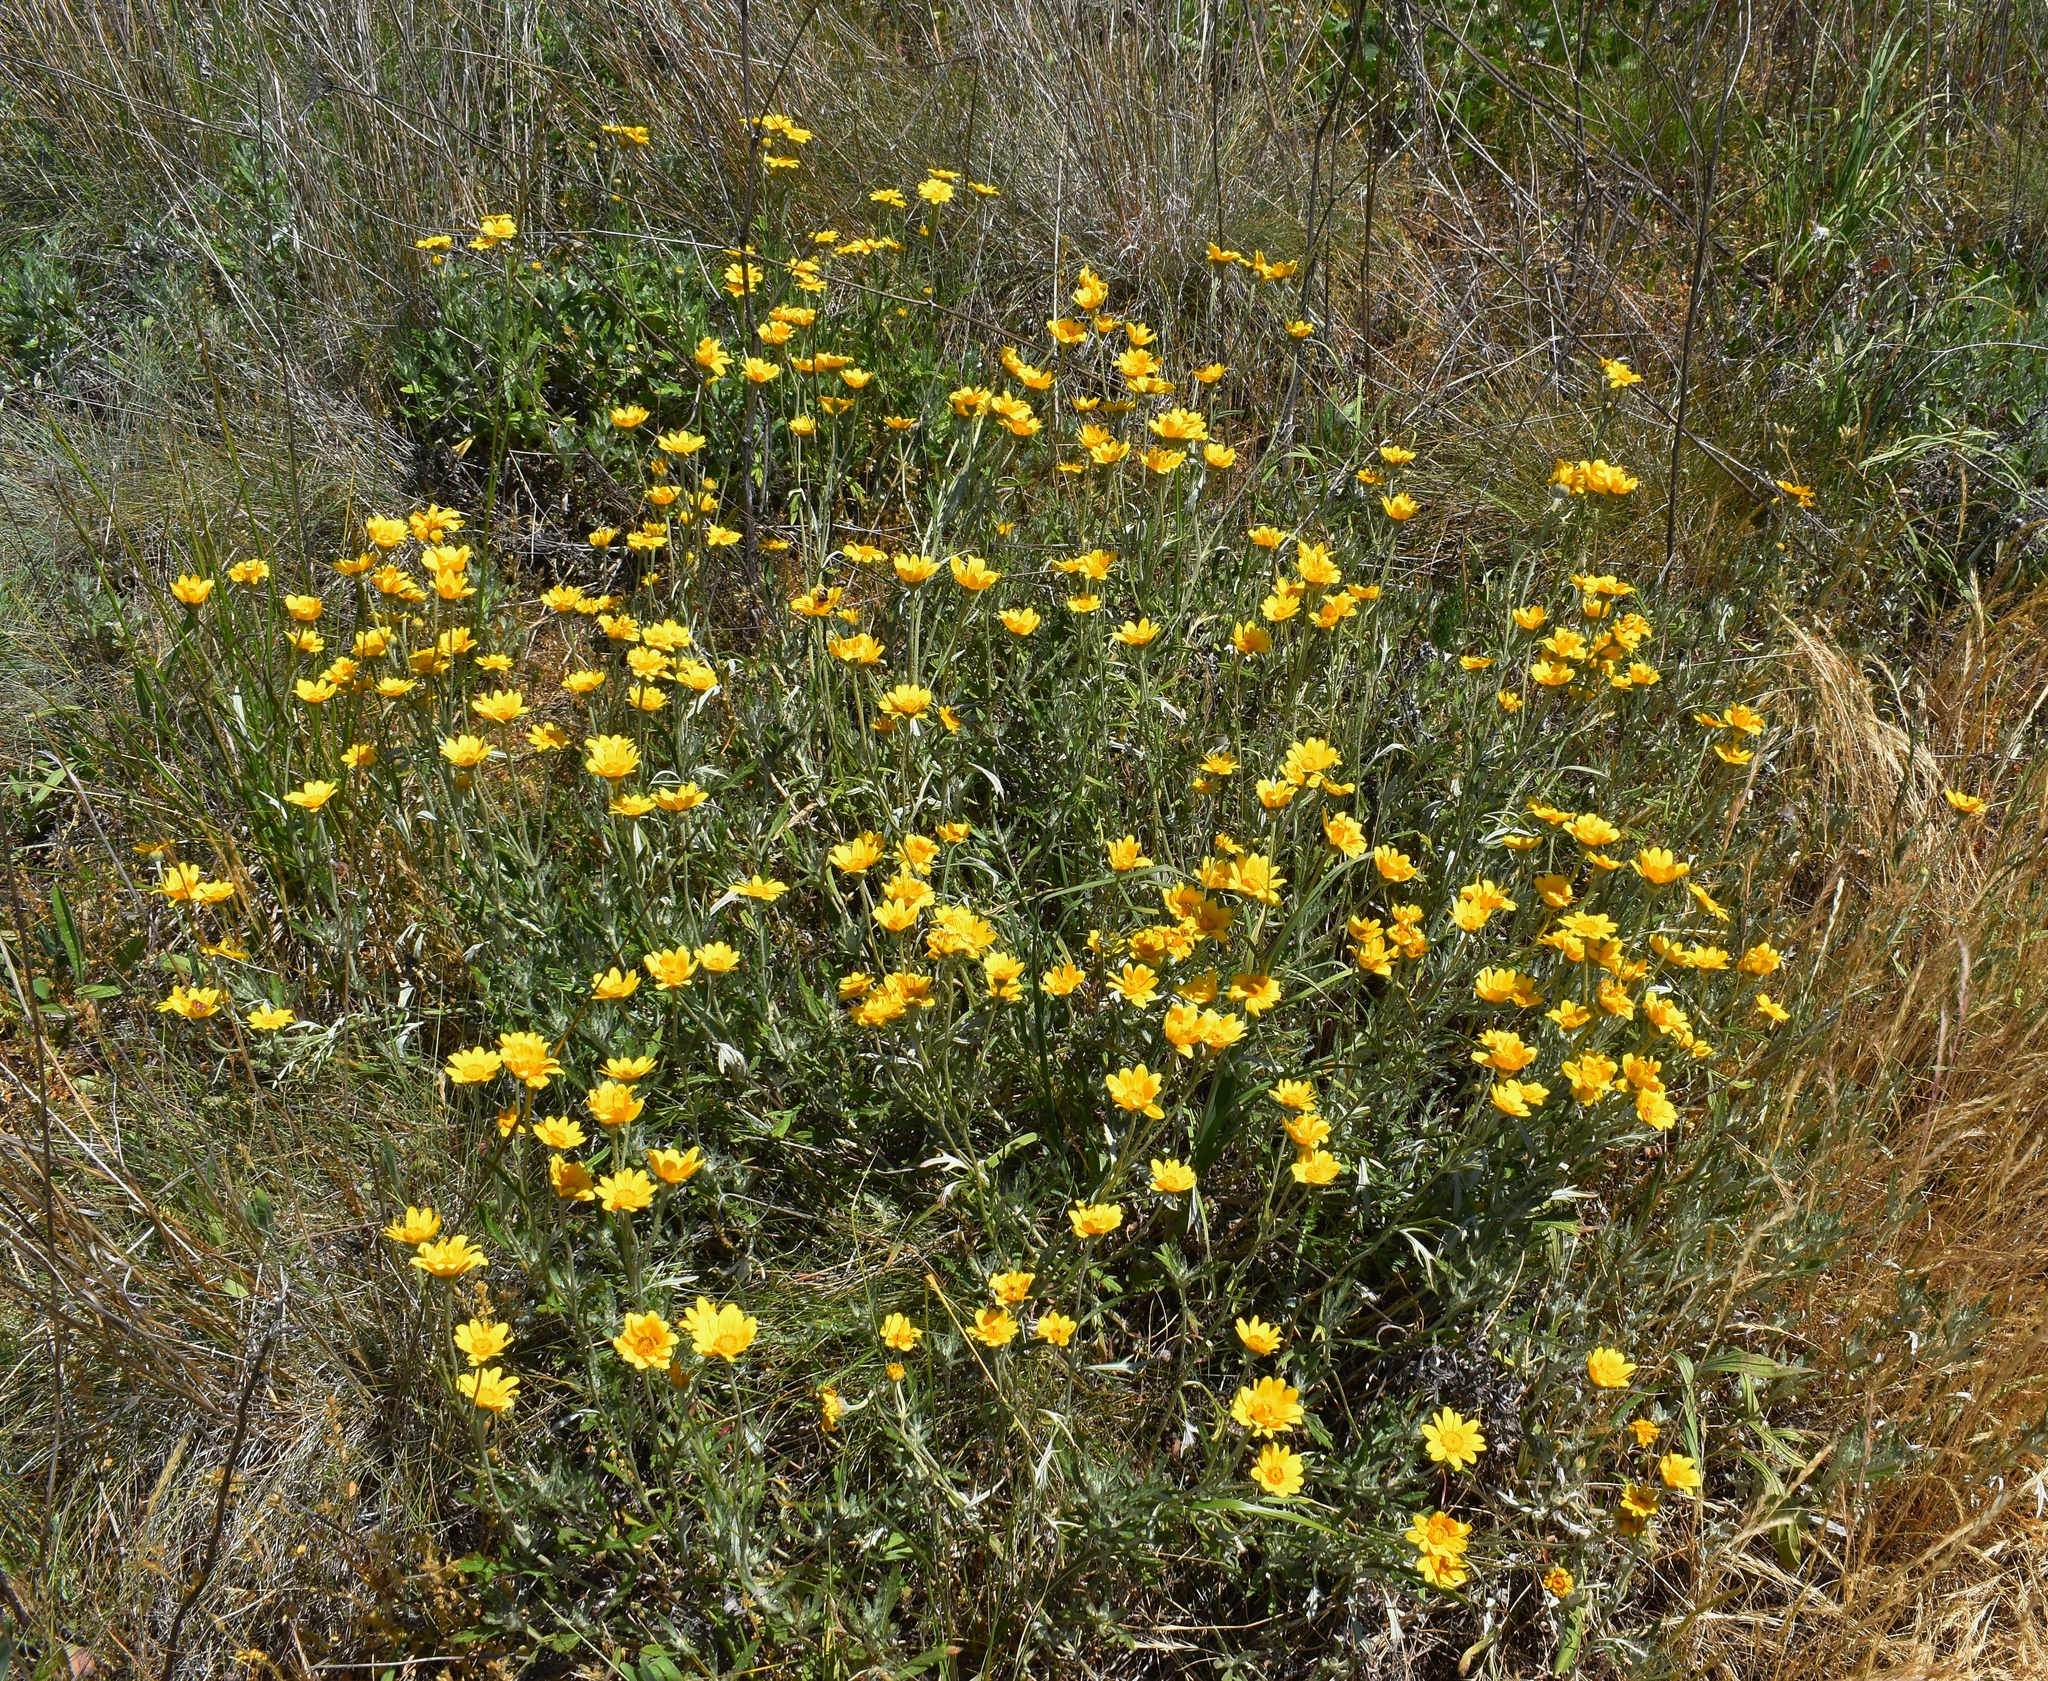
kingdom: Plantae
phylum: Tracheophyta
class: Magnoliopsida
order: Asterales
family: Asteraceae
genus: Eriophyllum
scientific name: Eriophyllum lanatum
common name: Common woolly-sunflower
